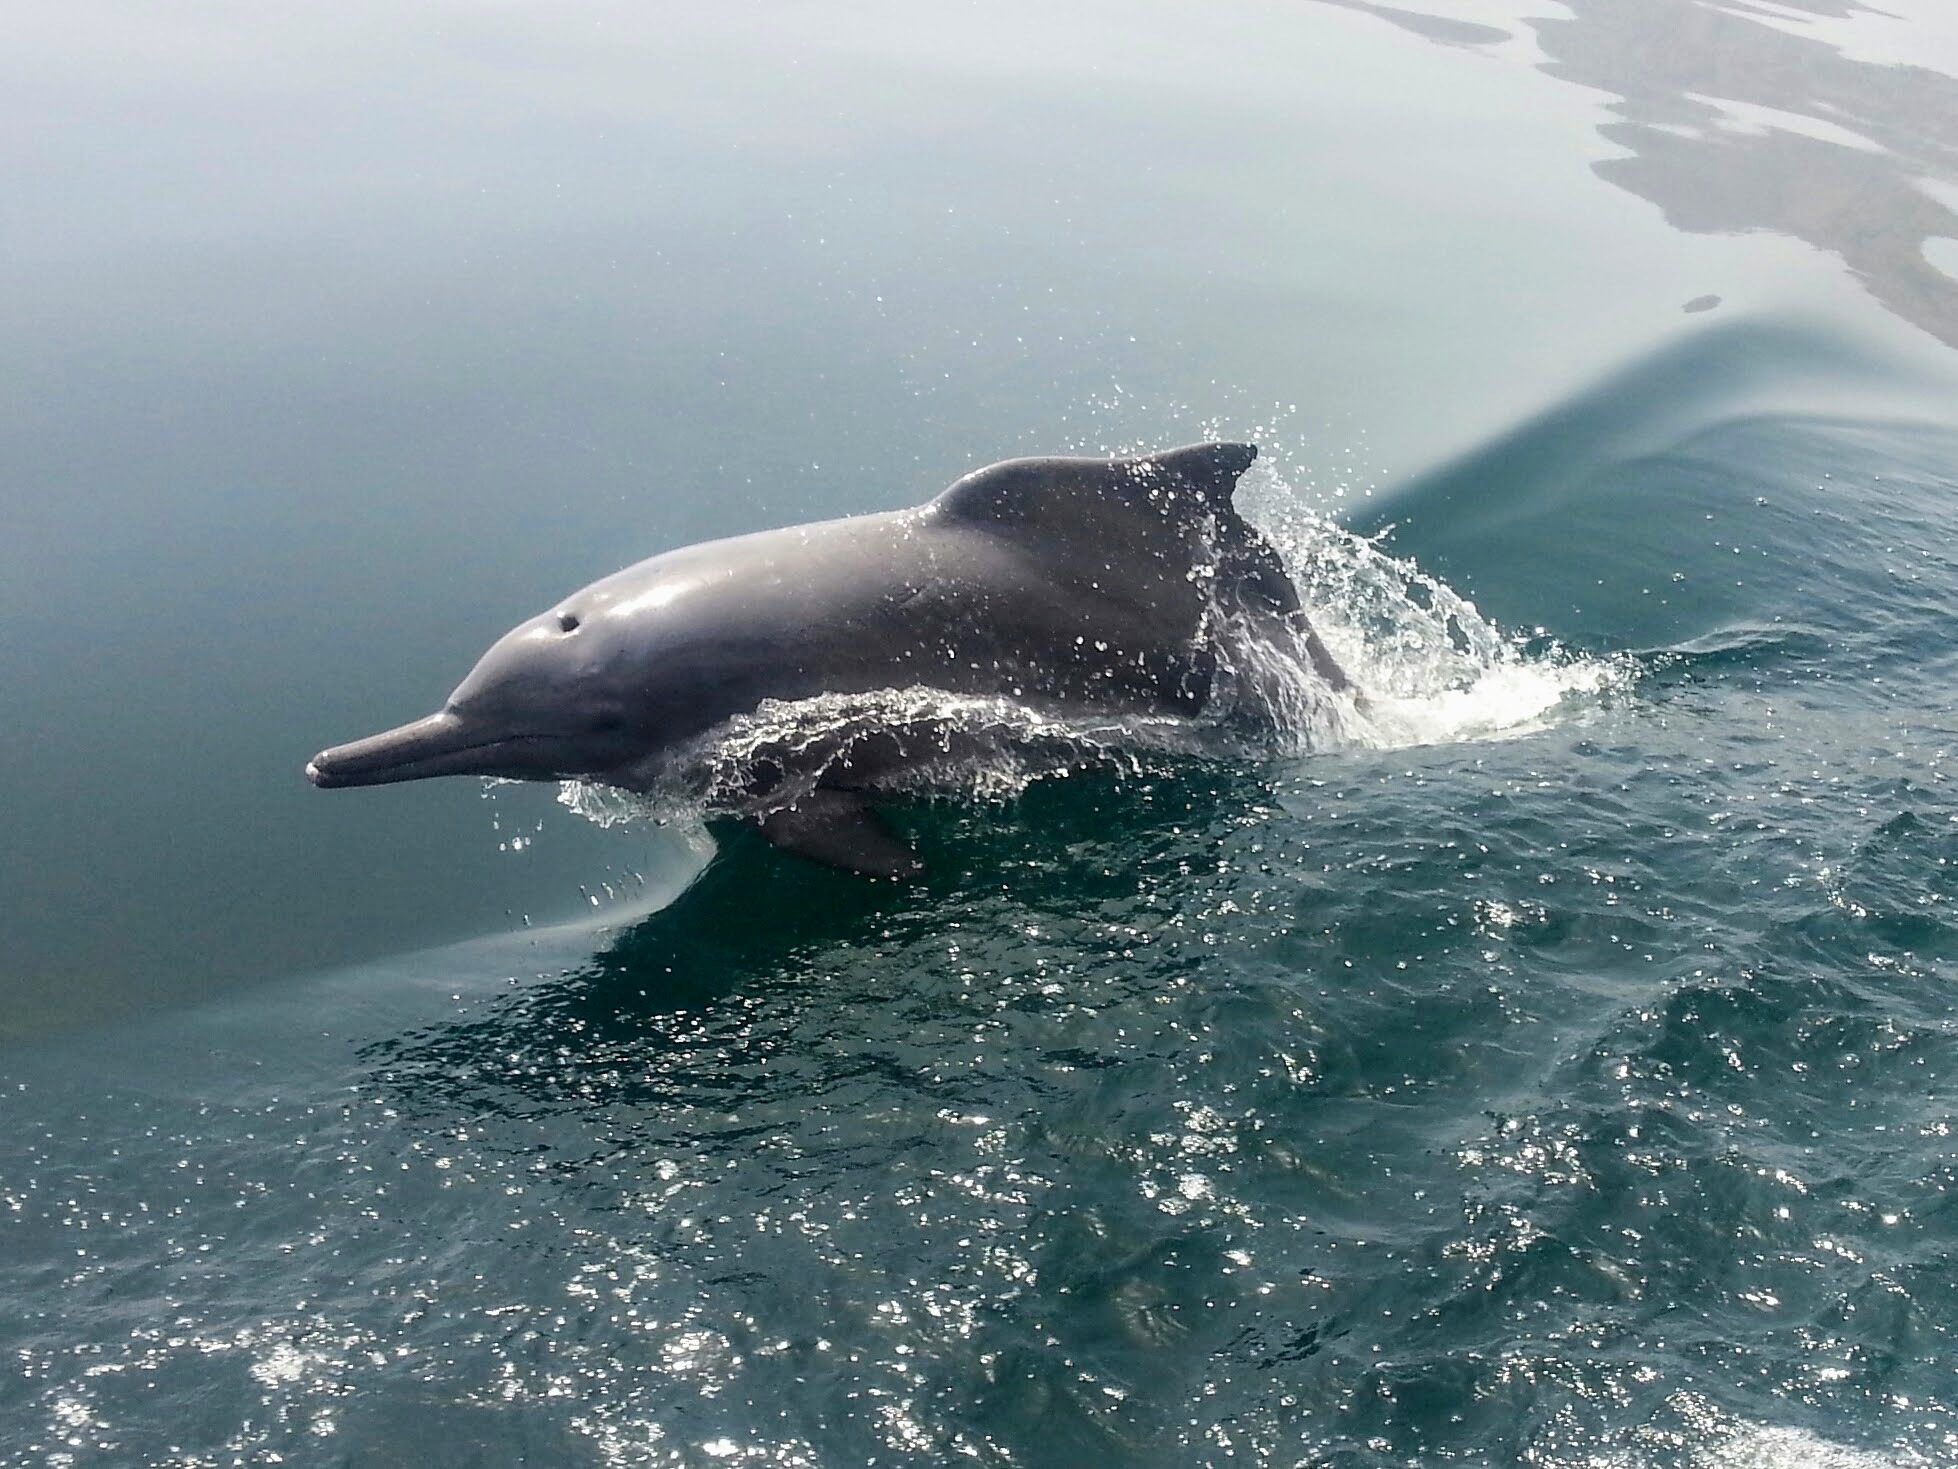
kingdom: Animalia
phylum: Chordata
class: Mammalia
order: Cetacea
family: Delphinidae
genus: Sousa
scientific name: Sousa plumbea
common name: Indian ocean humpback dolphin
